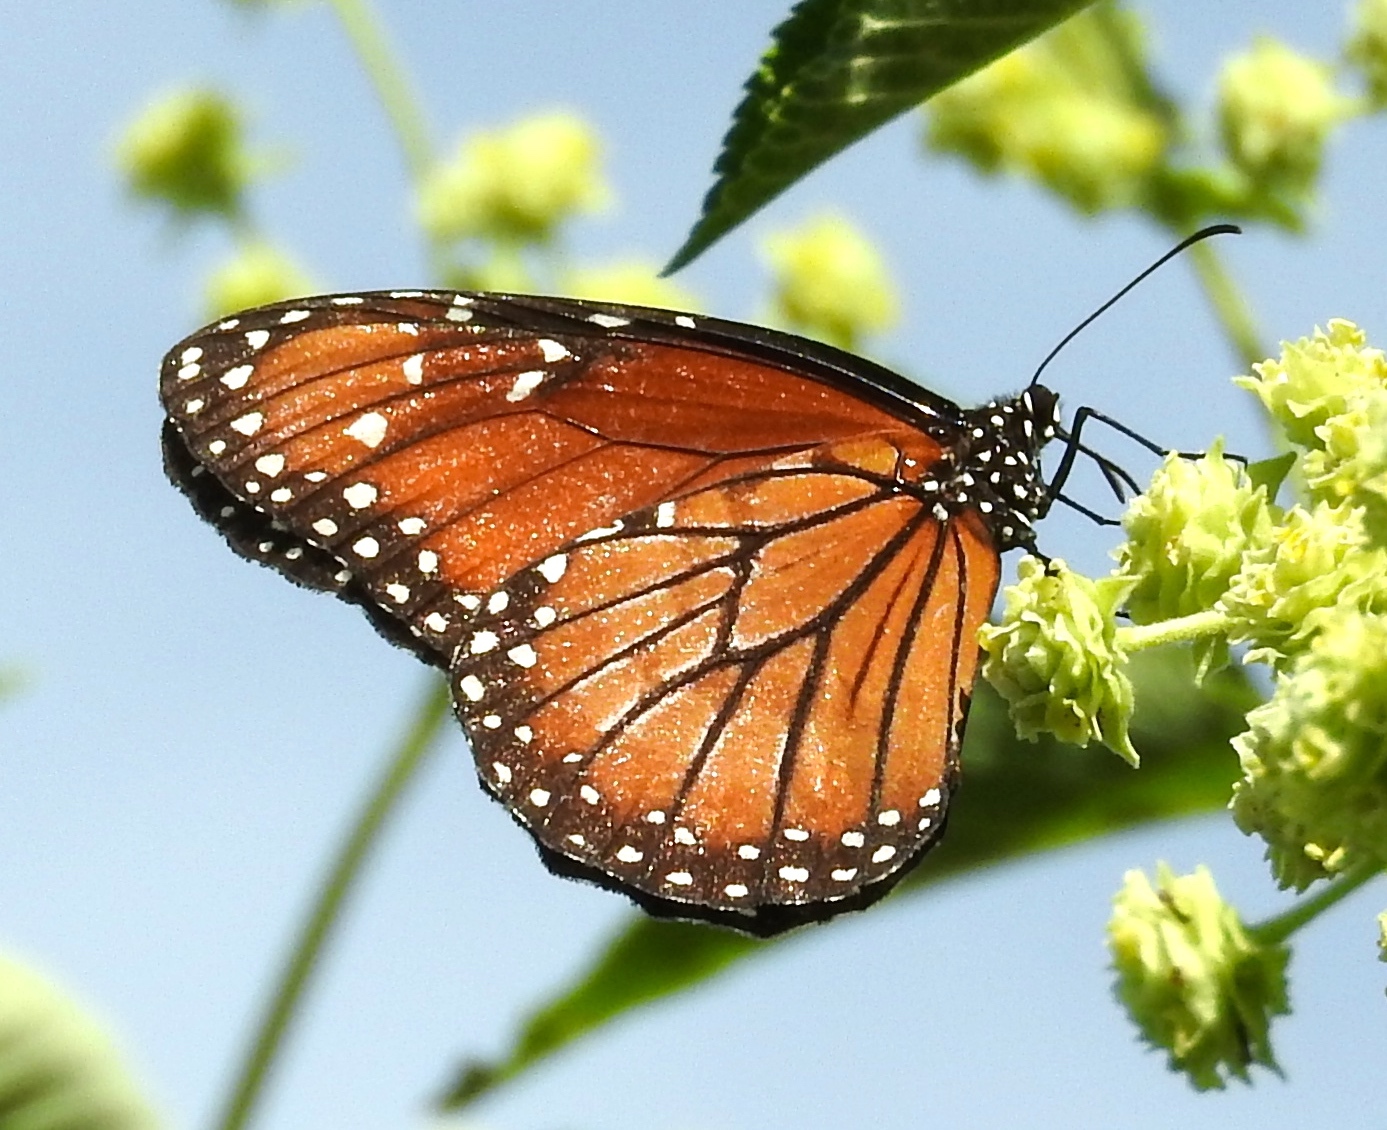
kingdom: Animalia
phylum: Arthropoda
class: Insecta
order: Lepidoptera
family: Nymphalidae
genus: Danaus
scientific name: Danaus eresimus
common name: Soldier
